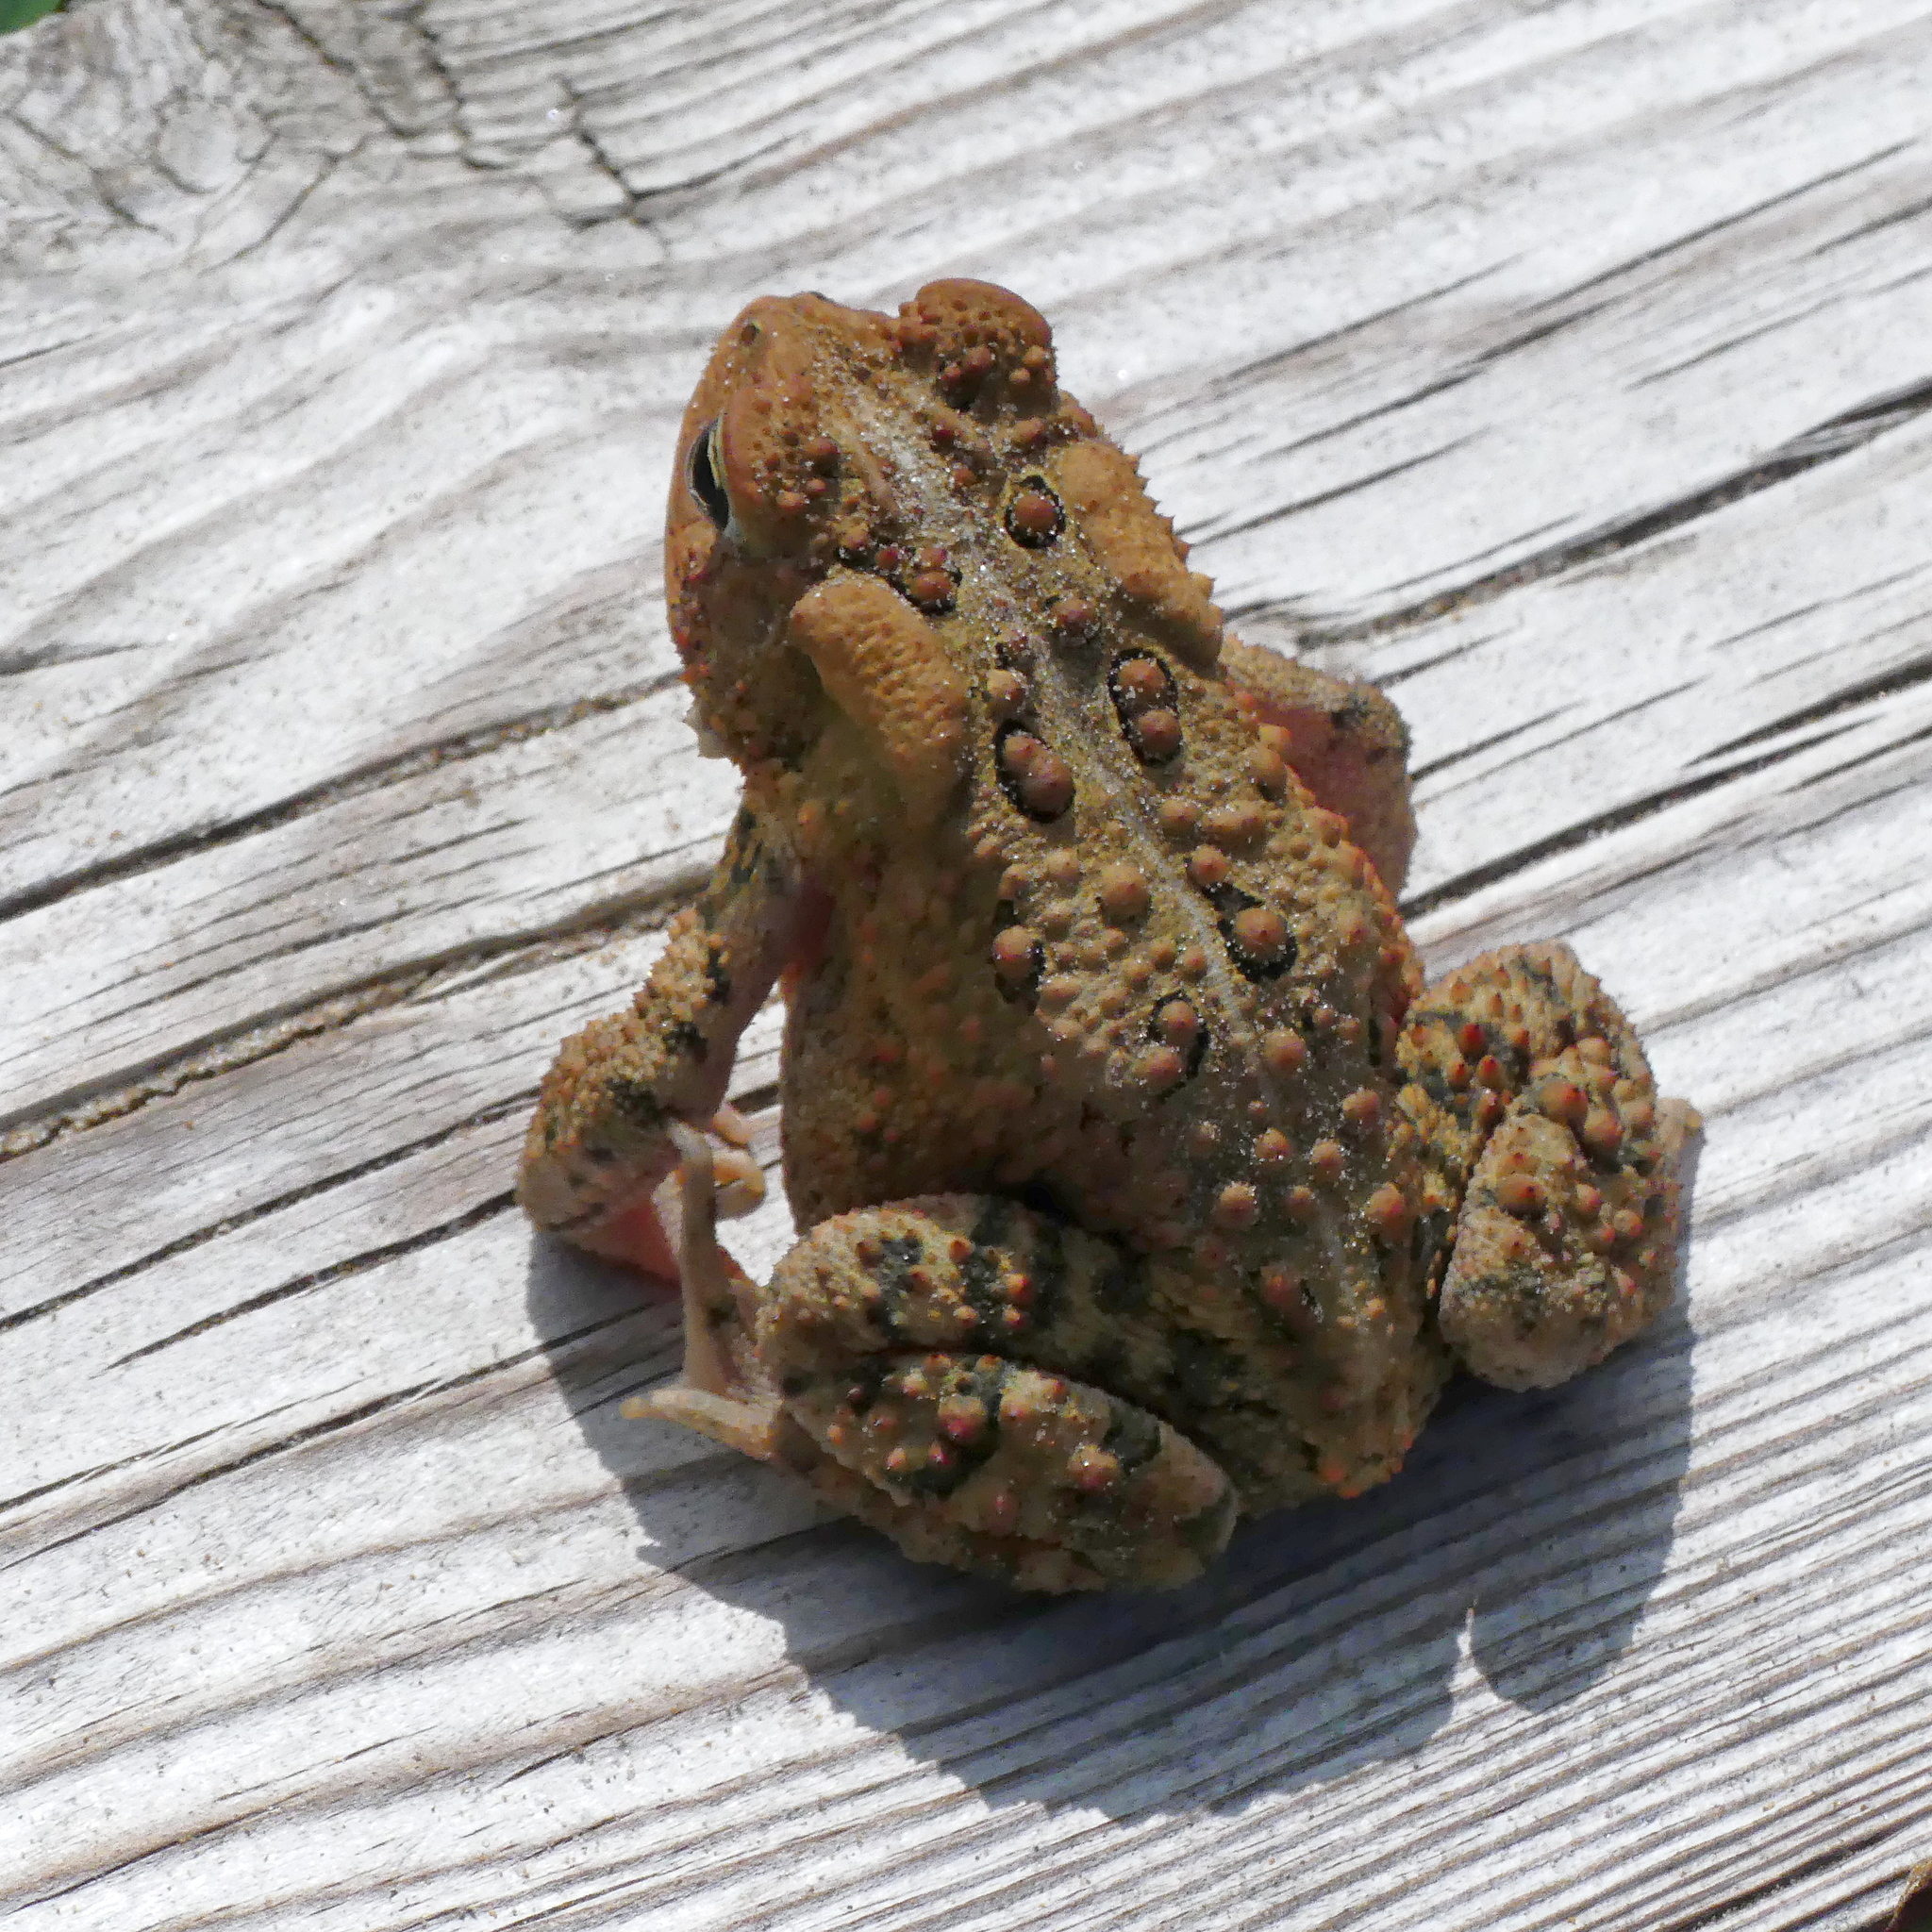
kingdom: Animalia
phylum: Chordata
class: Amphibia
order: Anura
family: Bufonidae
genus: Anaxyrus
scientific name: Anaxyrus americanus
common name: American toad
